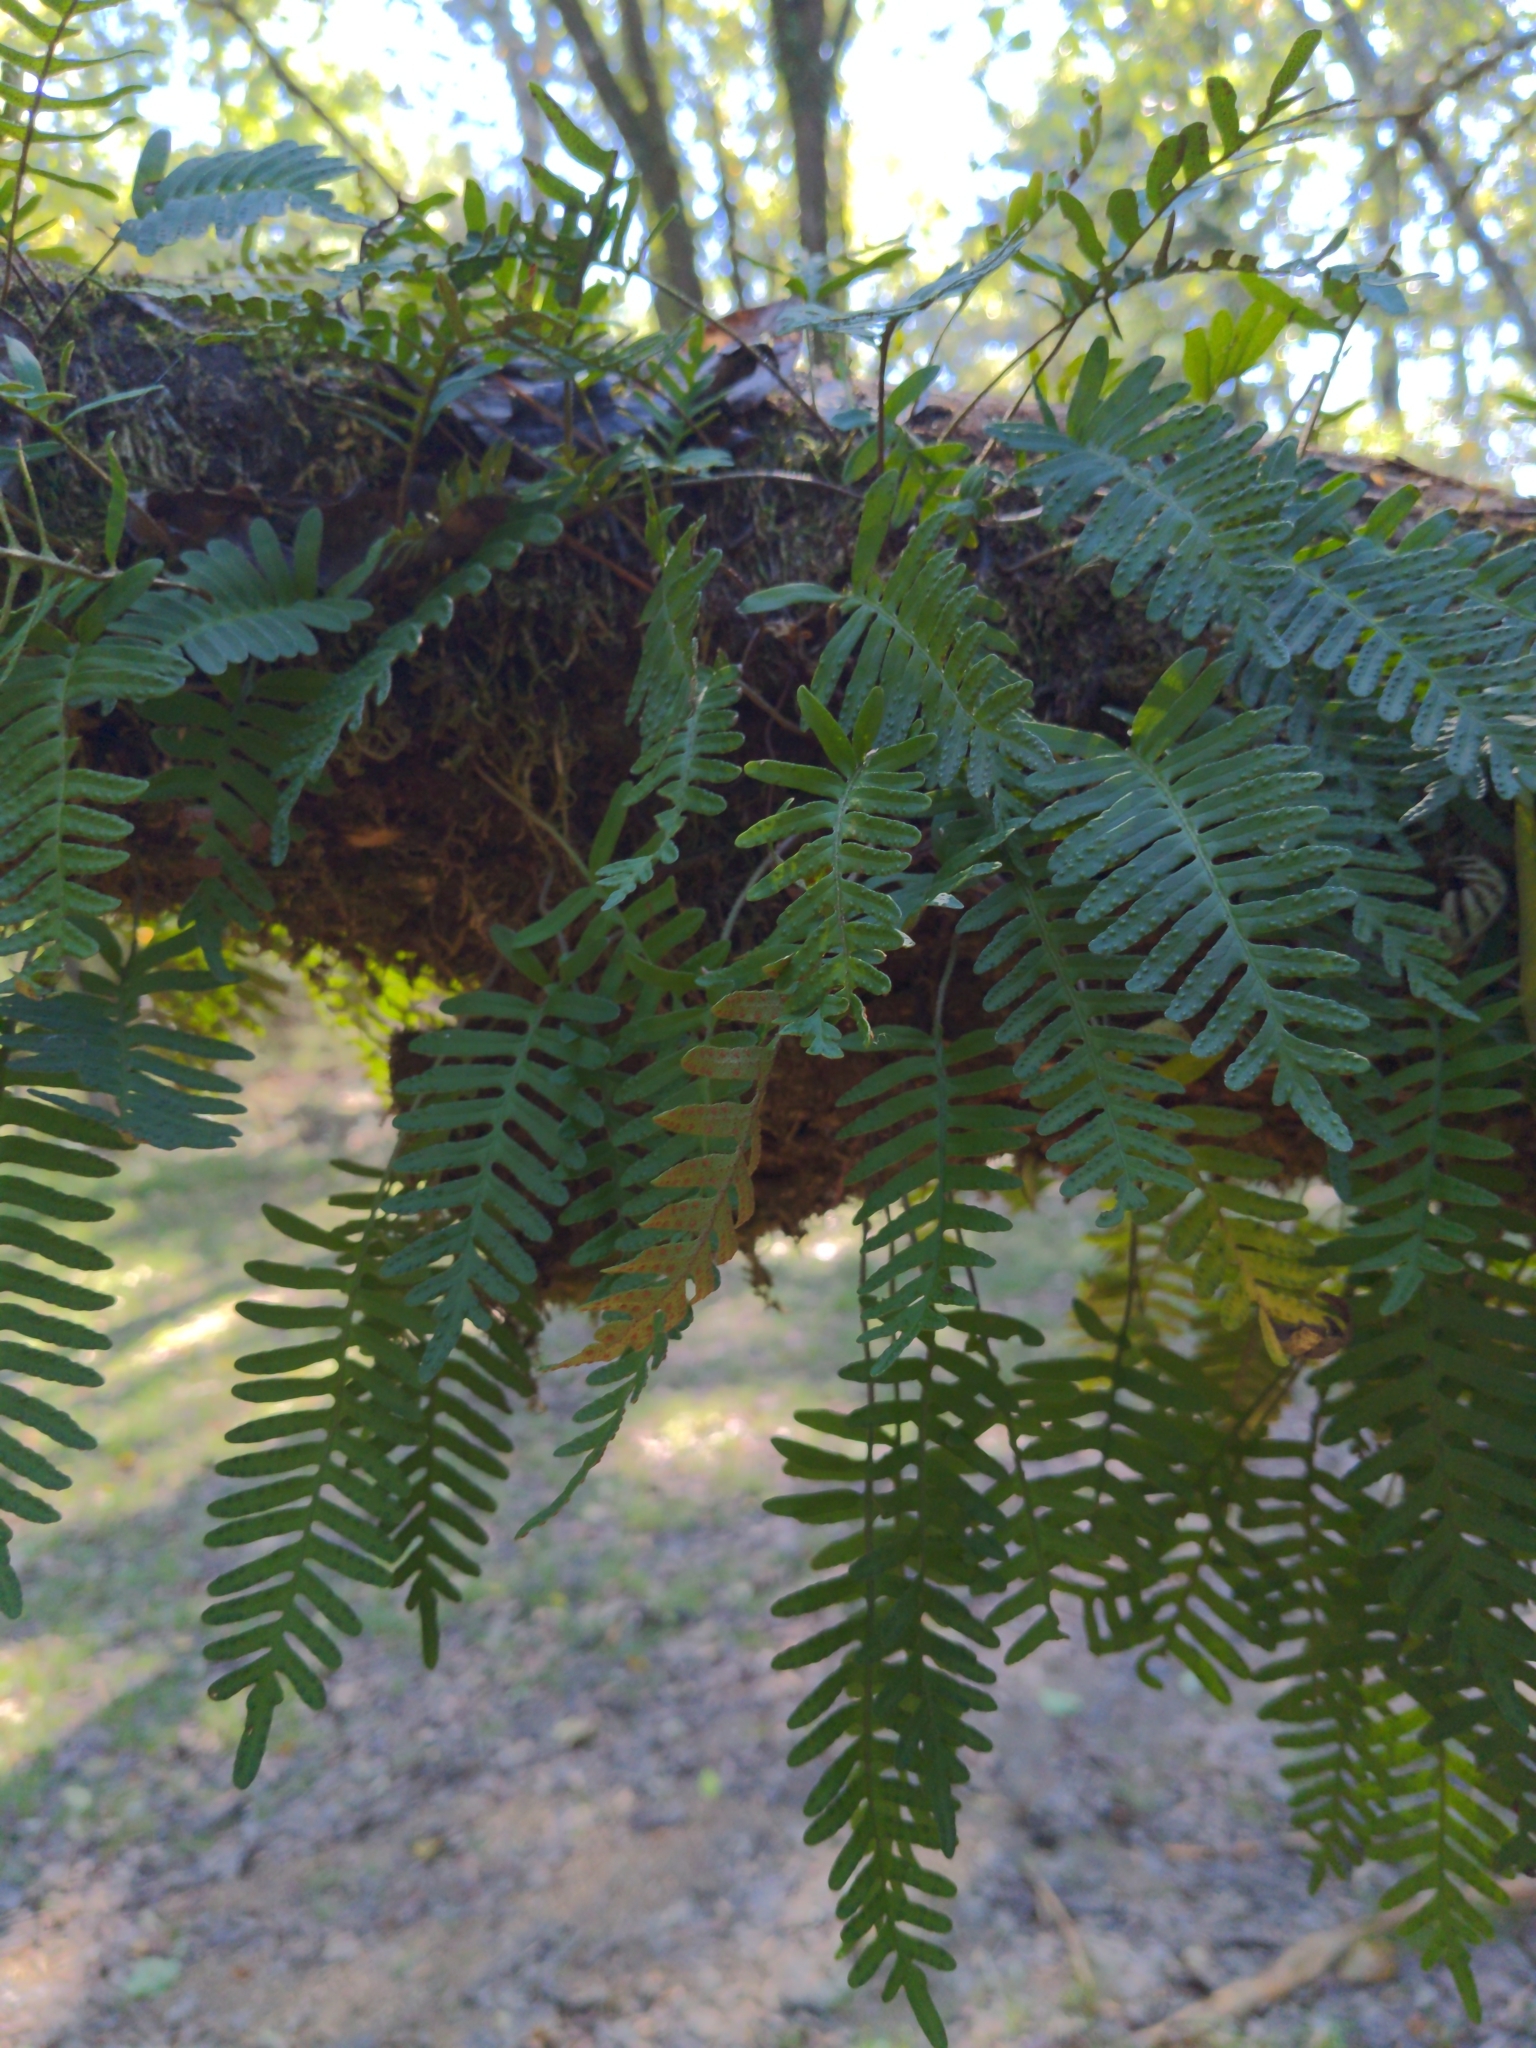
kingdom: Plantae
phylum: Tracheophyta
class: Polypodiopsida
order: Polypodiales
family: Polypodiaceae
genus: Pleopeltis
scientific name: Pleopeltis michauxiana
